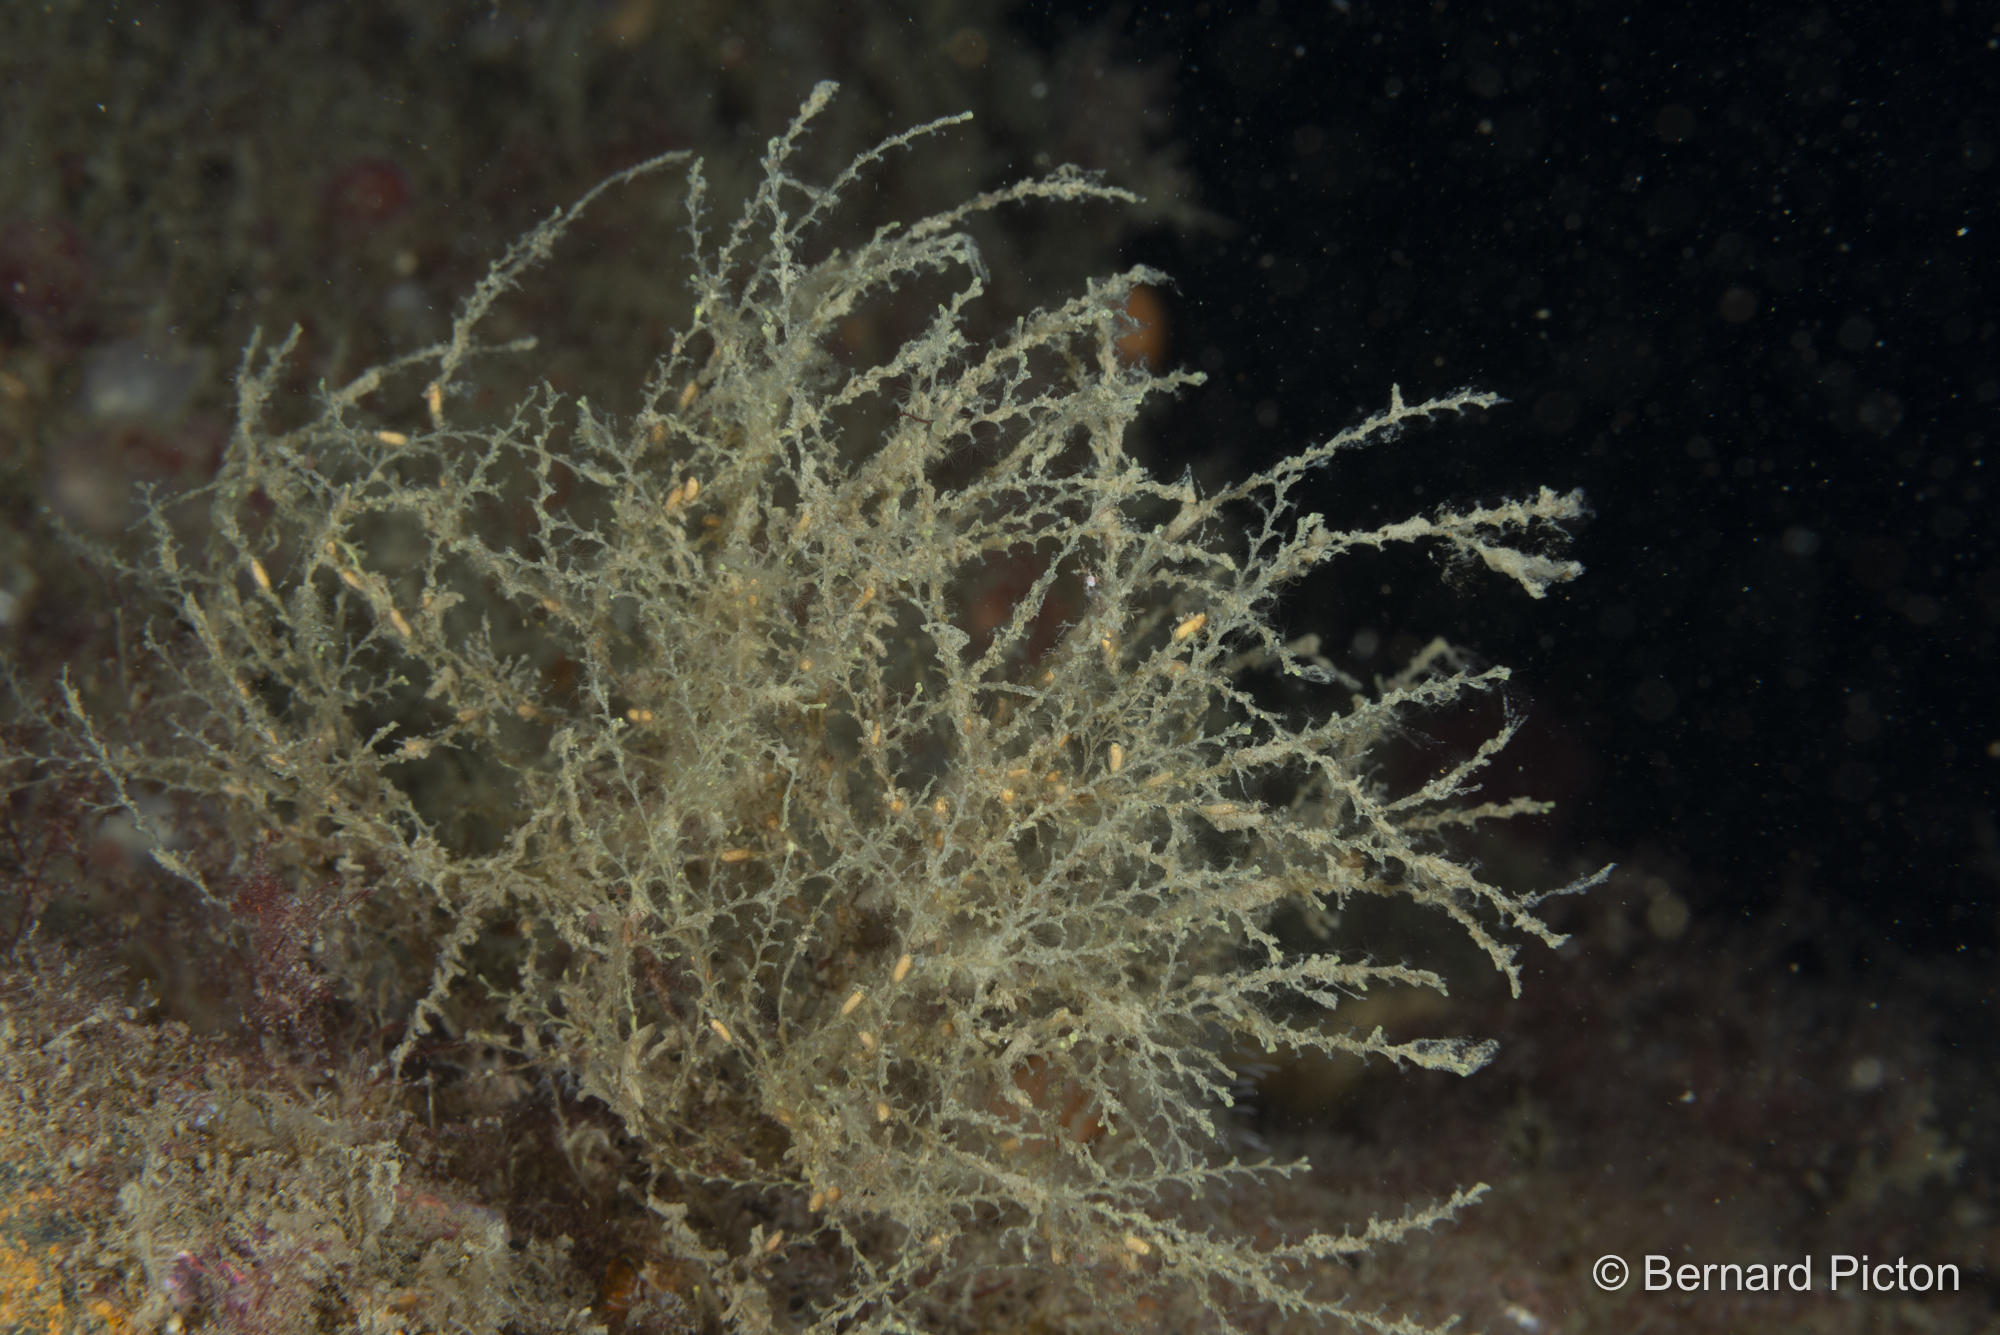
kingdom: Animalia
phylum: Cnidaria
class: Hydrozoa
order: Leptothecata
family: Sertularellidae
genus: Sertularella
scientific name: Sertularella polyzonias
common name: Great tooth hydroid
